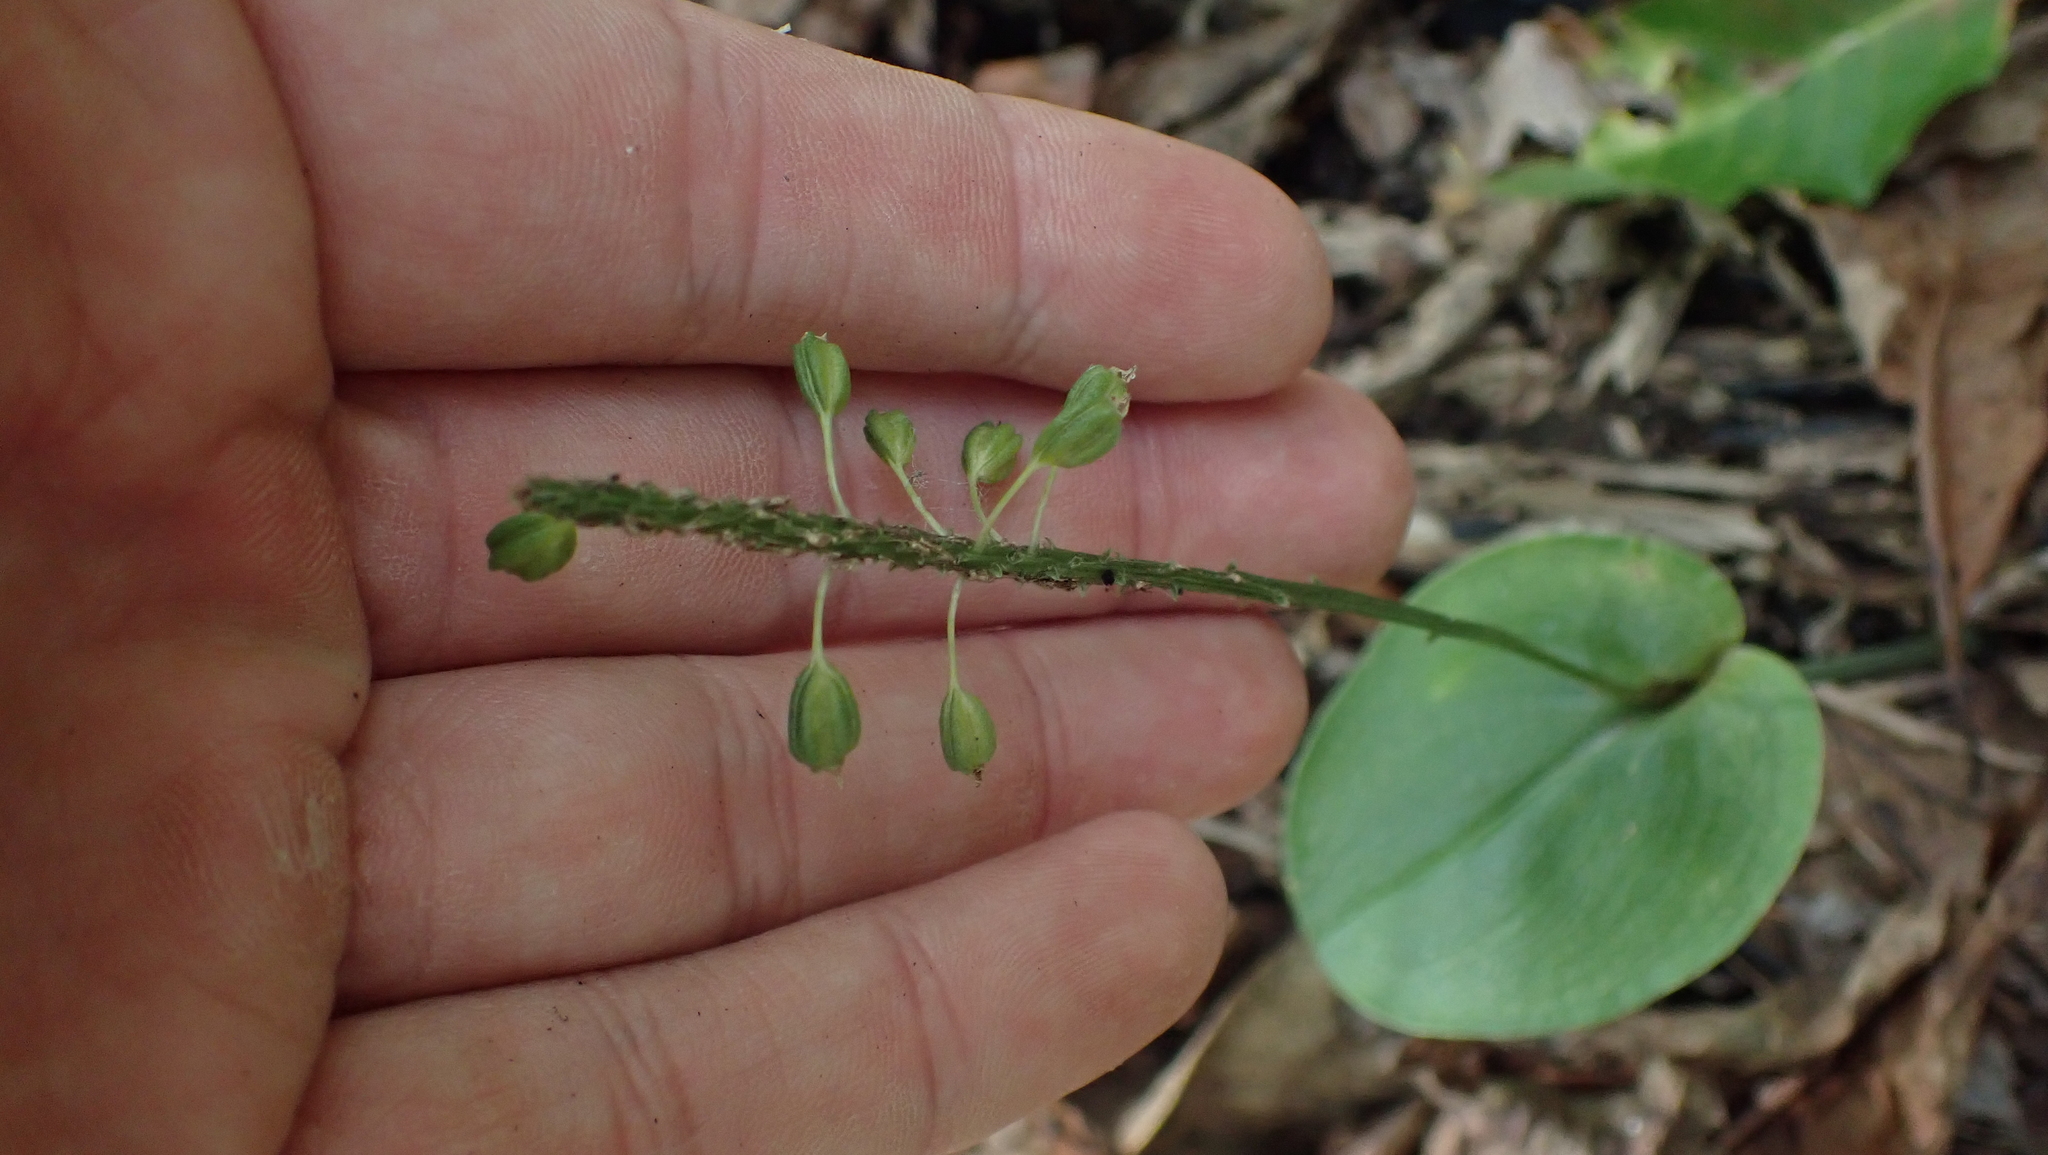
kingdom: Plantae
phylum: Tracheophyta
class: Liliopsida
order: Asparagales
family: Orchidaceae
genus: Malaxis
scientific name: Malaxis unifolia
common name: Green adder's-mouth
